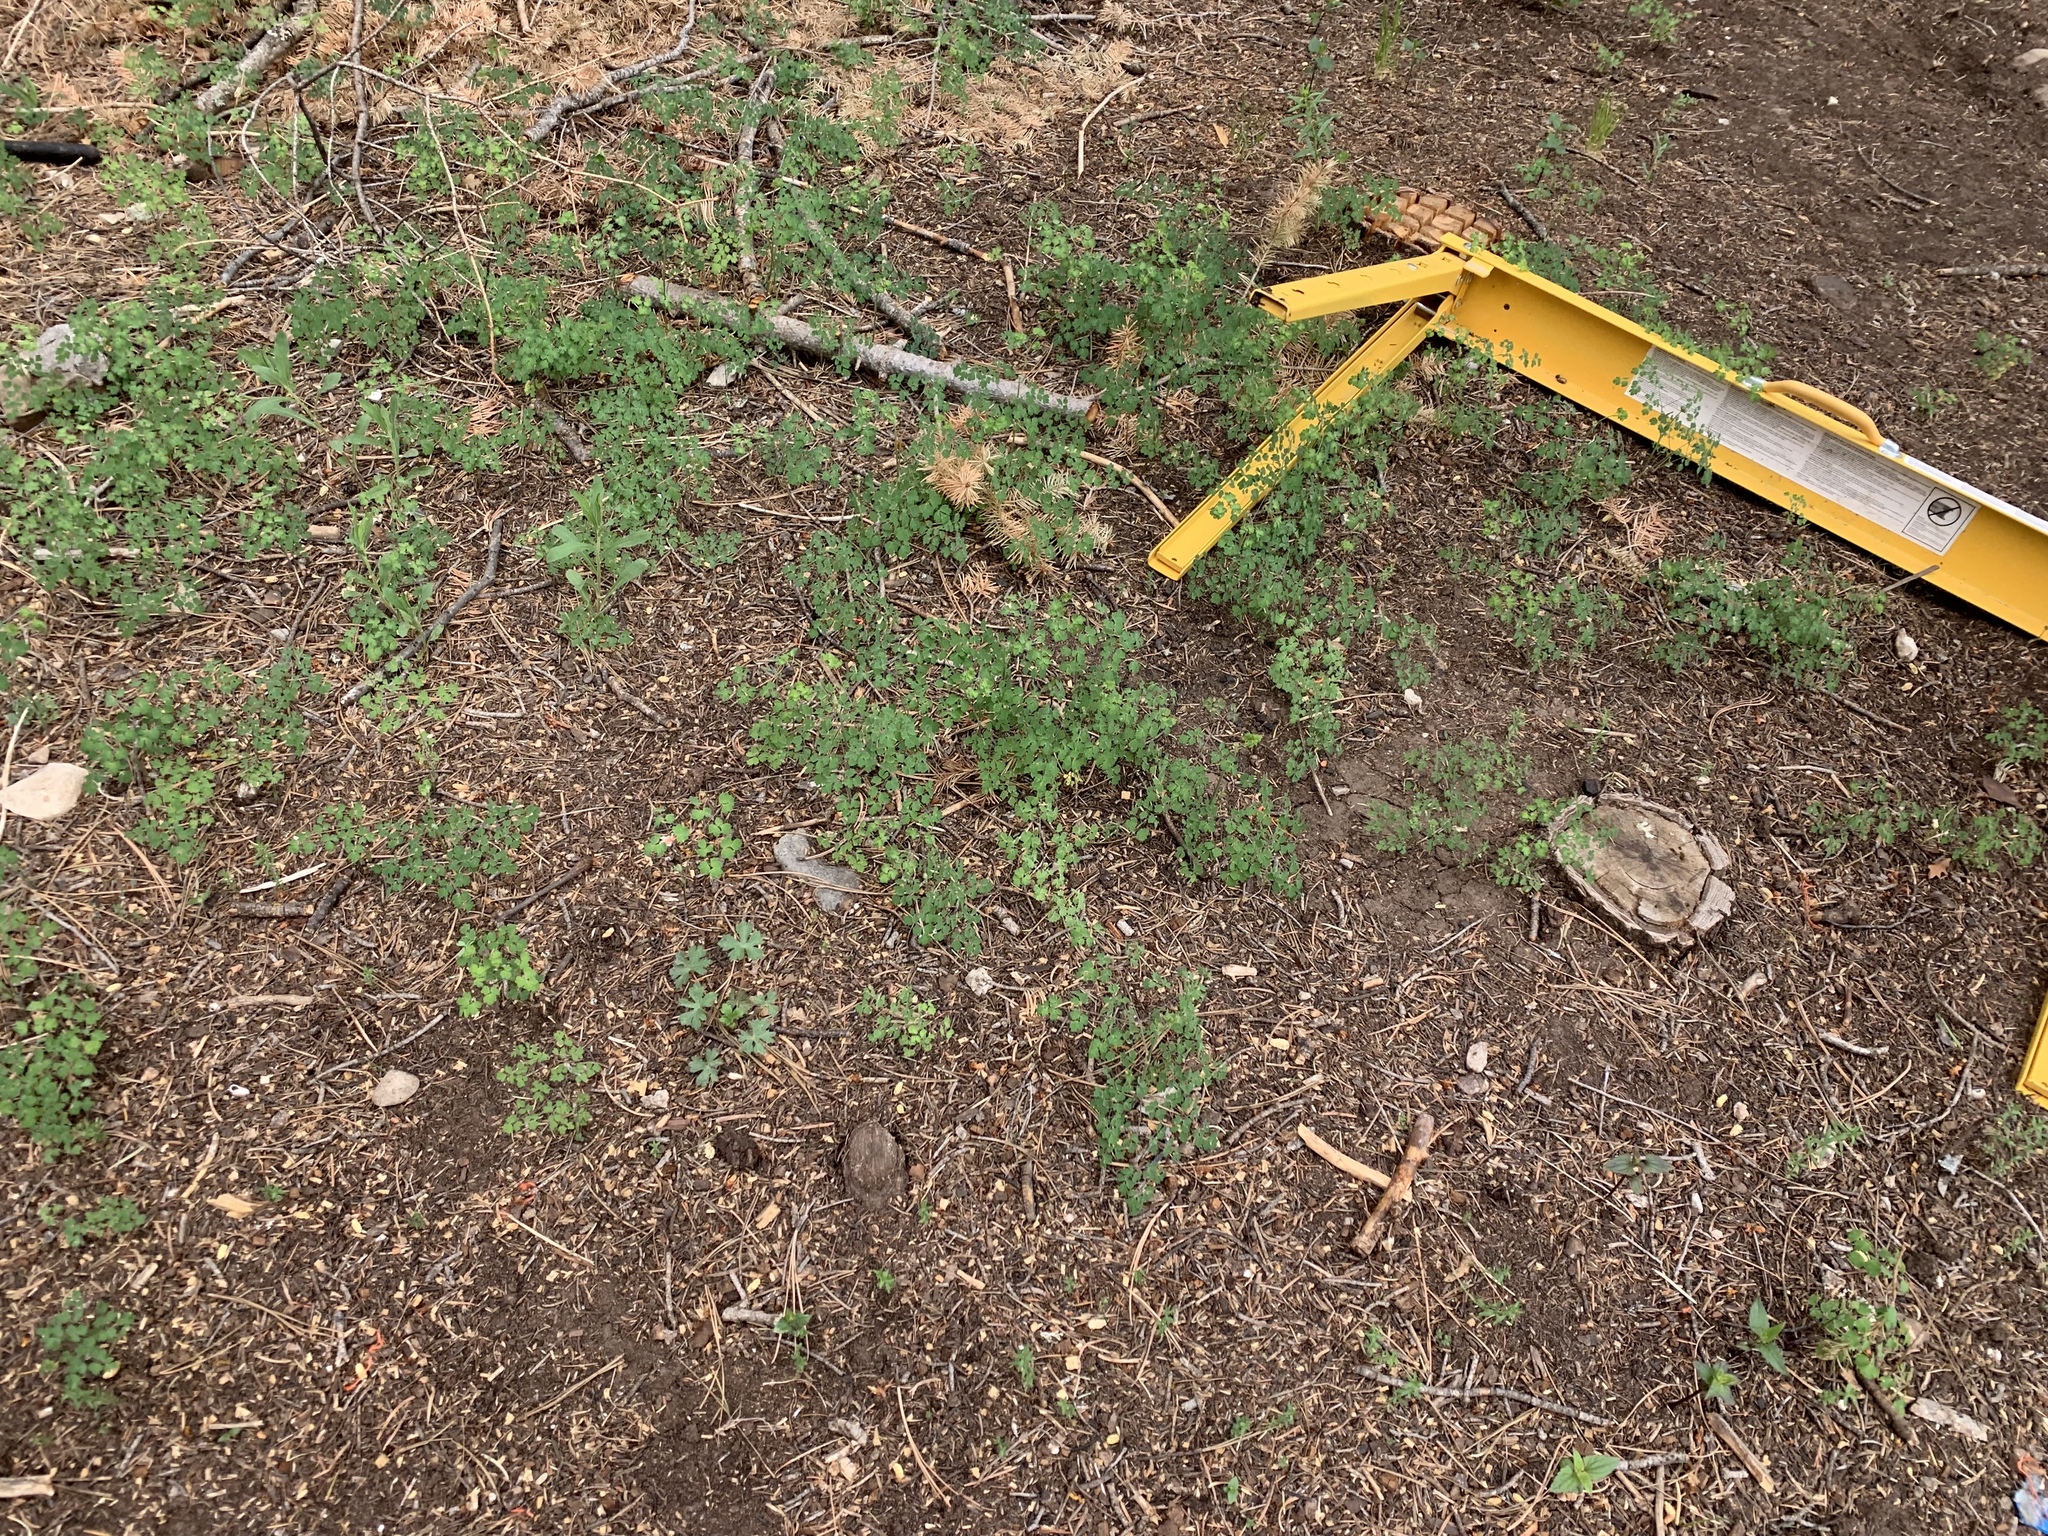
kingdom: Plantae
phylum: Tracheophyta
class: Magnoliopsida
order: Ranunculales
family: Ranunculaceae
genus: Thalictrum
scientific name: Thalictrum fendleri
